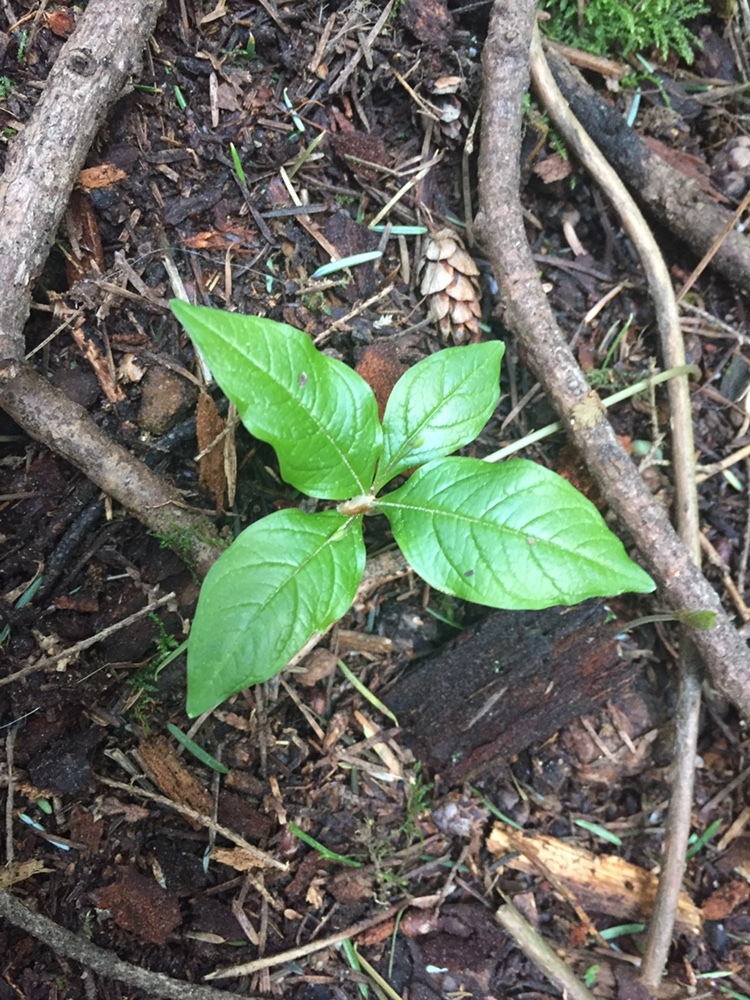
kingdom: Plantae
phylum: Tracheophyta
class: Magnoliopsida
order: Ericales
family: Primulaceae
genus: Lysimachia
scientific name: Lysimachia latifolia
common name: Pacific starflower
